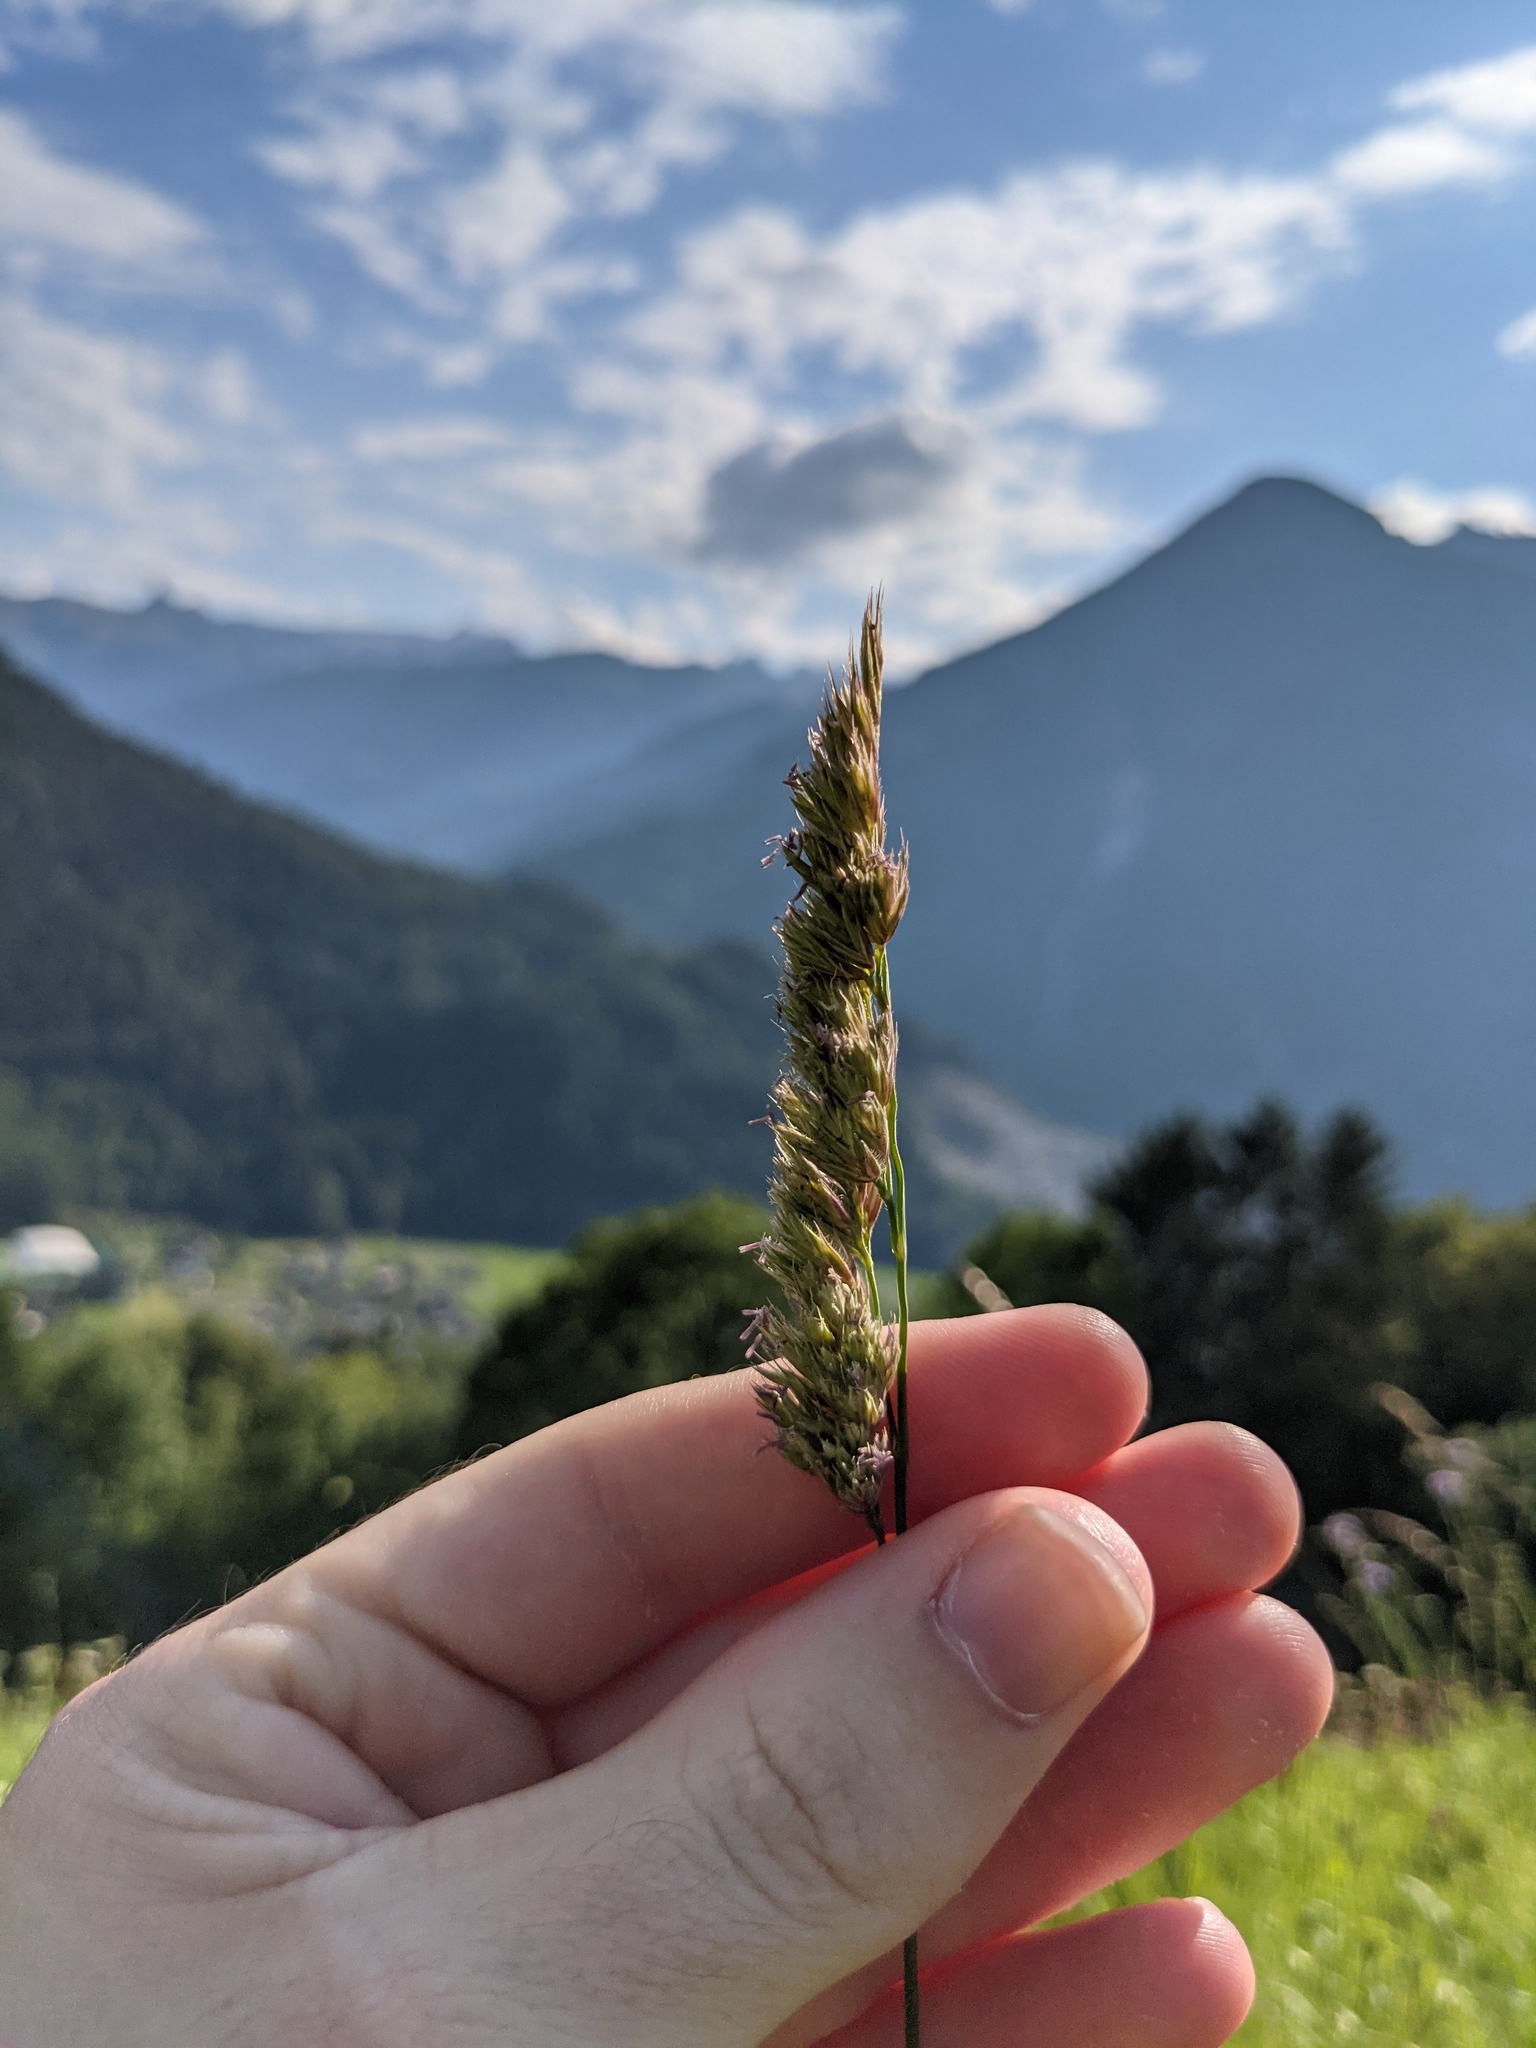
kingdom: Plantae
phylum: Tracheophyta
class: Liliopsida
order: Poales
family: Poaceae
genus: Dactylis
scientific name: Dactylis glomerata
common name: Orchardgrass
